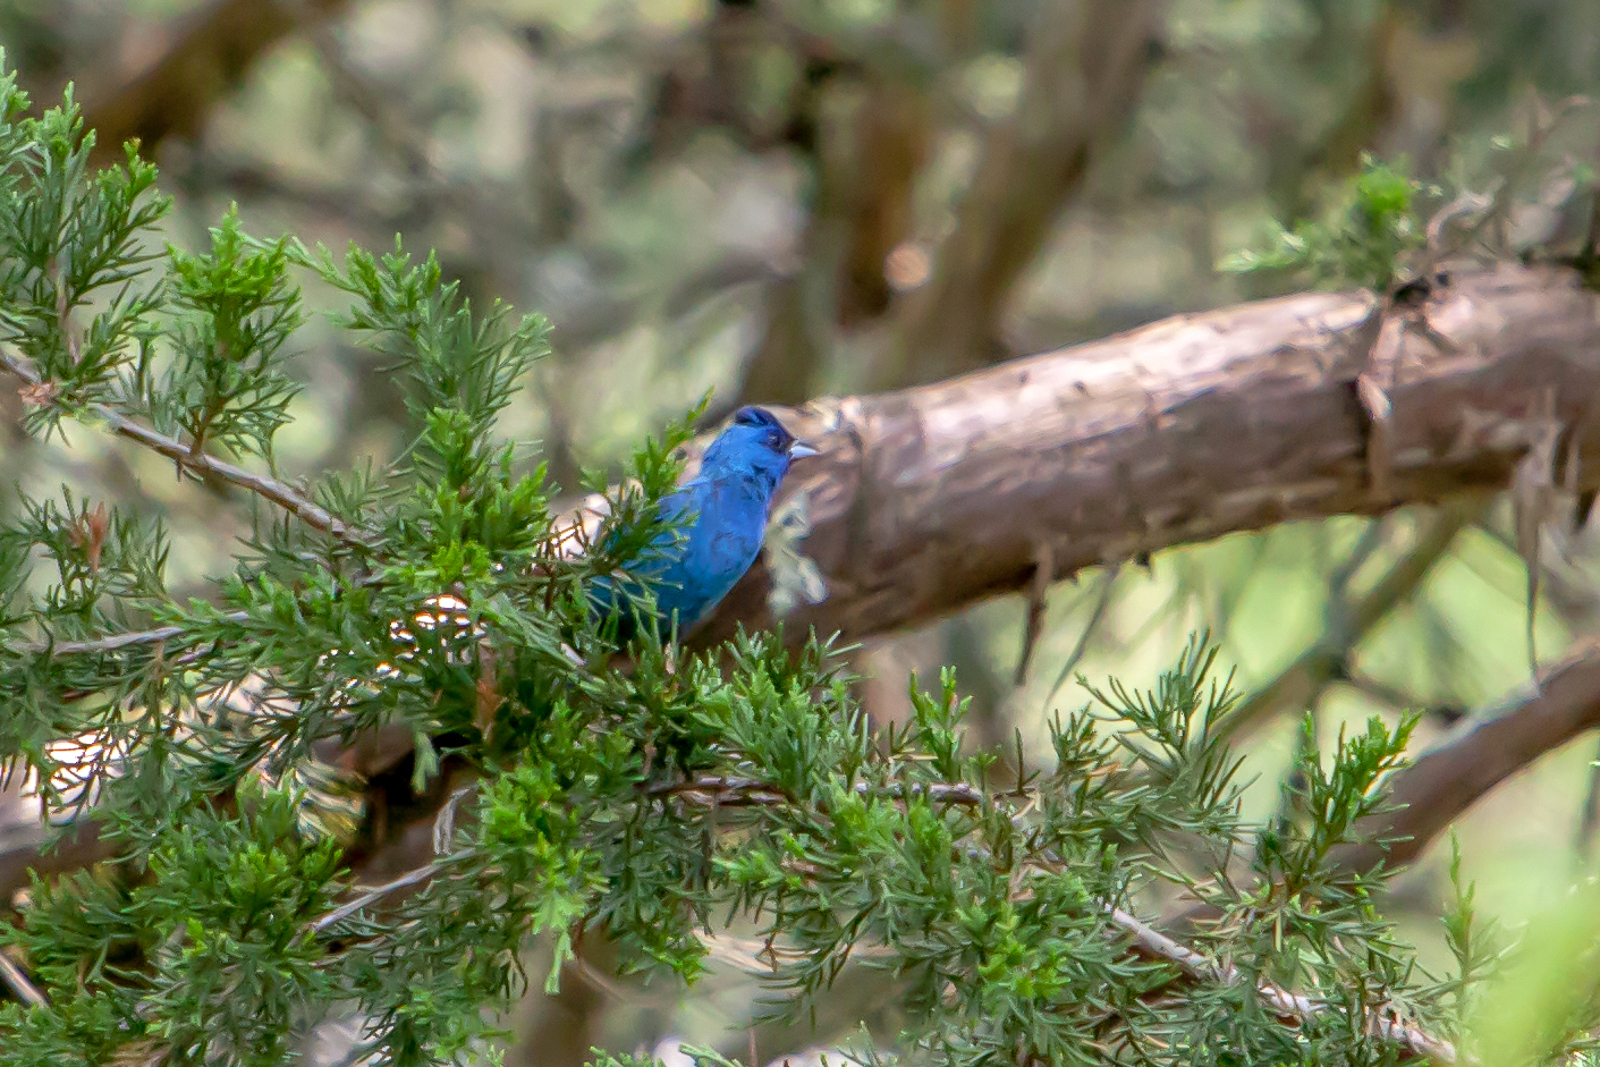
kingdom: Animalia
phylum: Chordata
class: Aves
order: Passeriformes
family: Cardinalidae
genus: Passerina
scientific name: Passerina cyanea
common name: Indigo bunting
